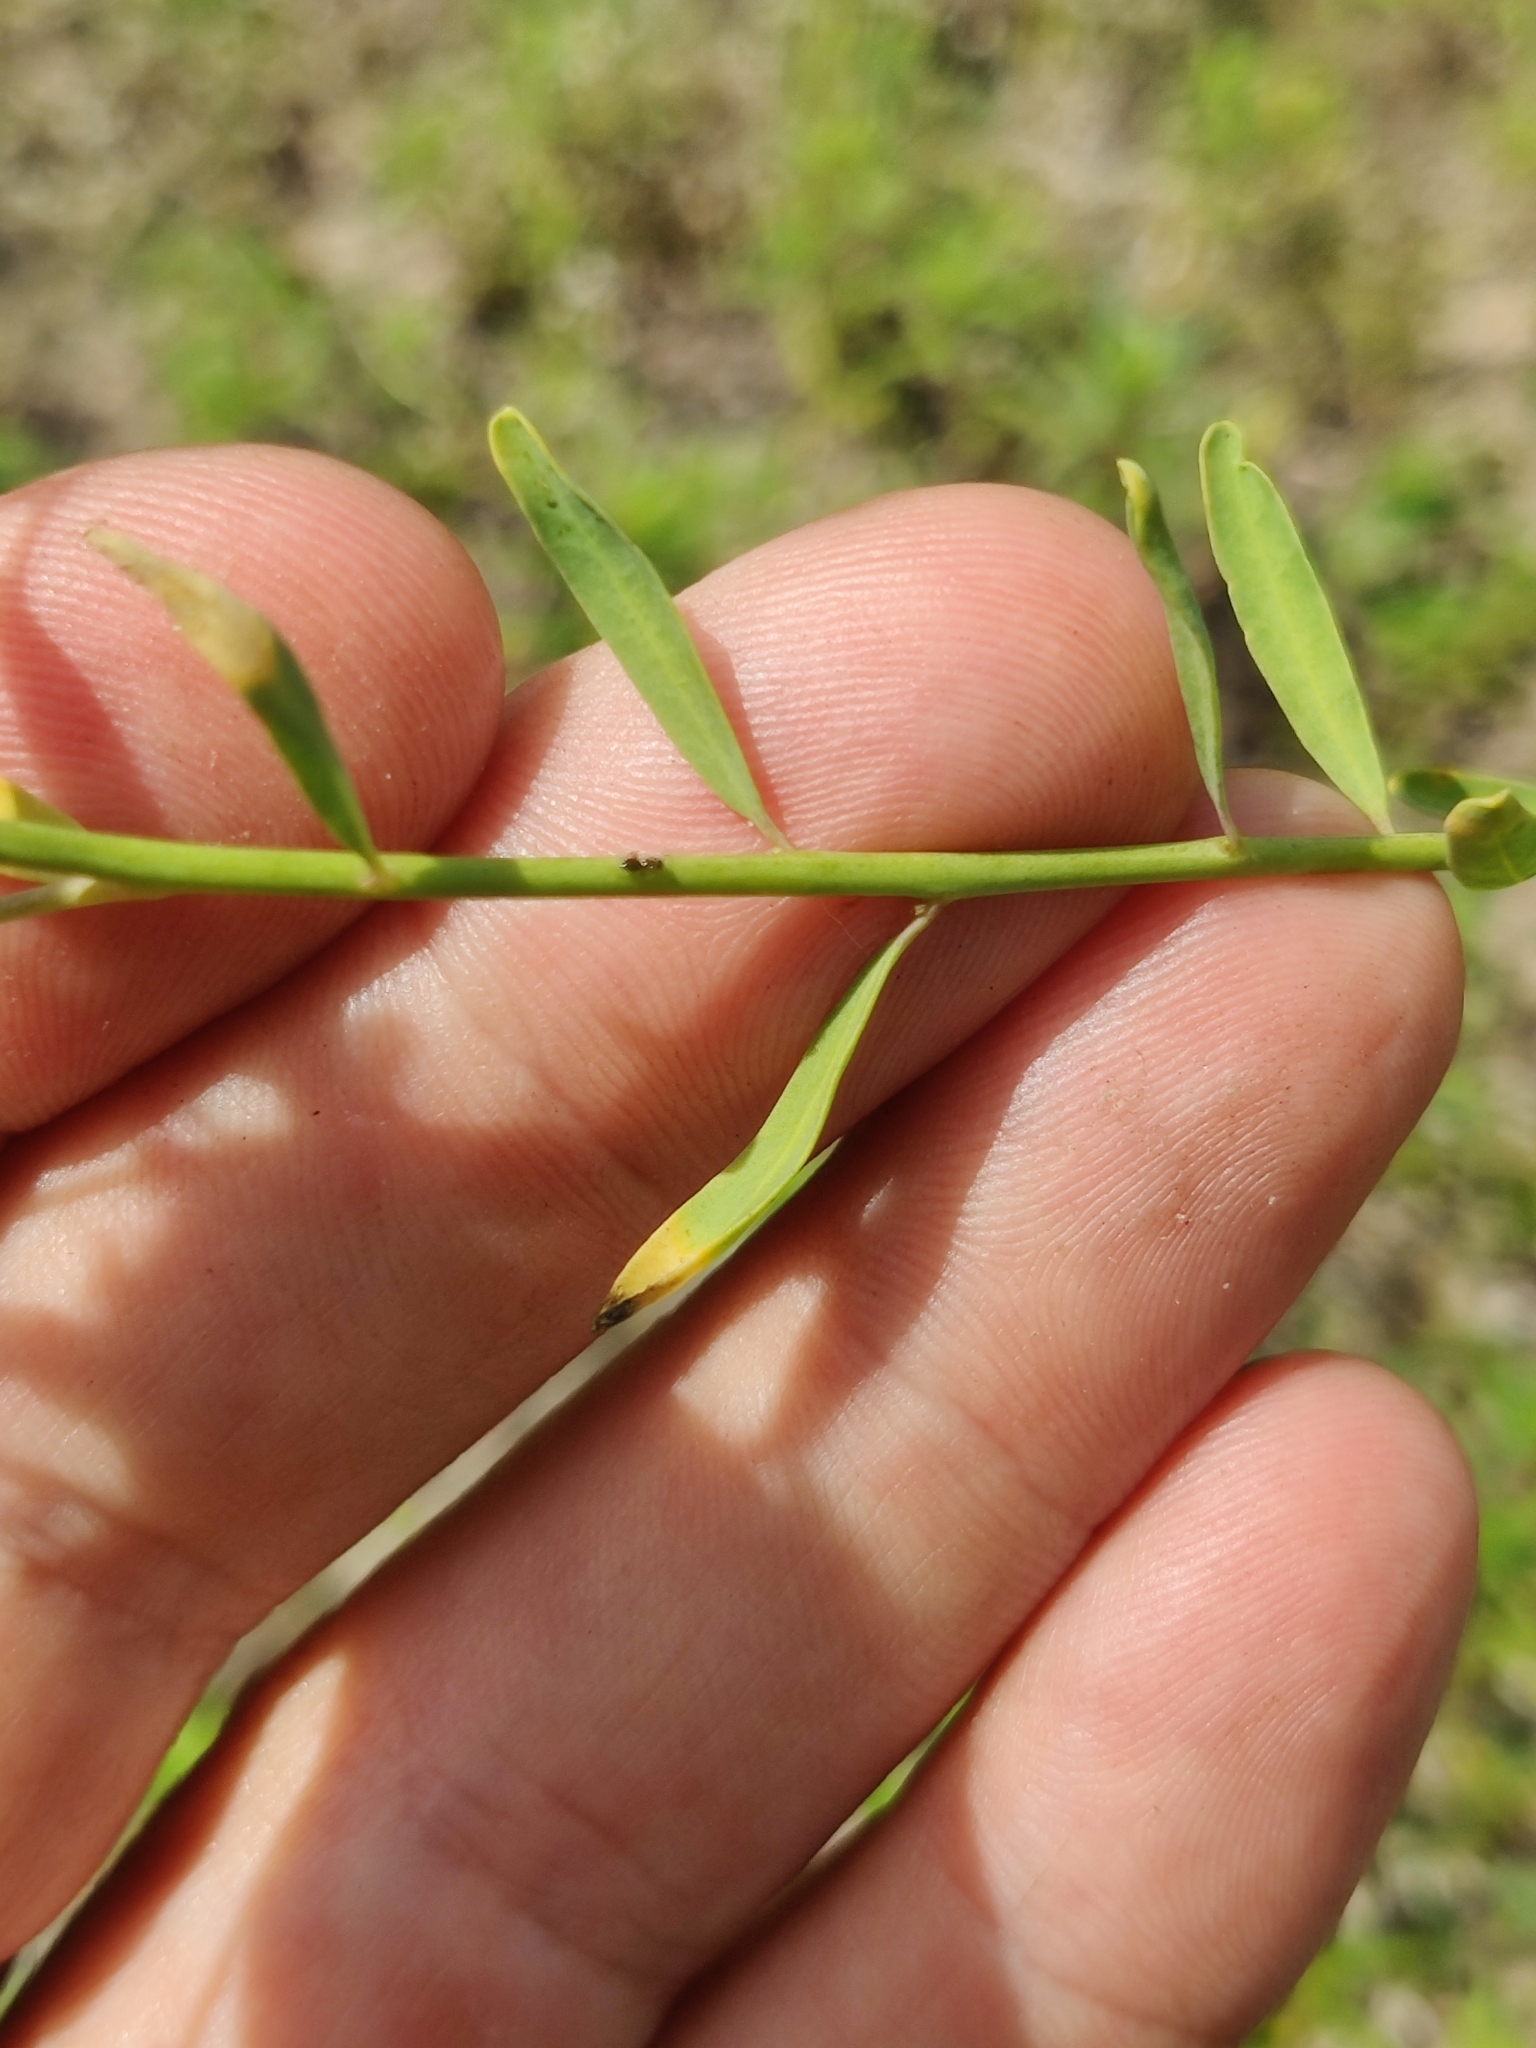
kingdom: Plantae
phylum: Tracheophyta
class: Magnoliopsida
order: Brassicales
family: Brassicaceae
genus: Warea
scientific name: Warea cuneifolia
